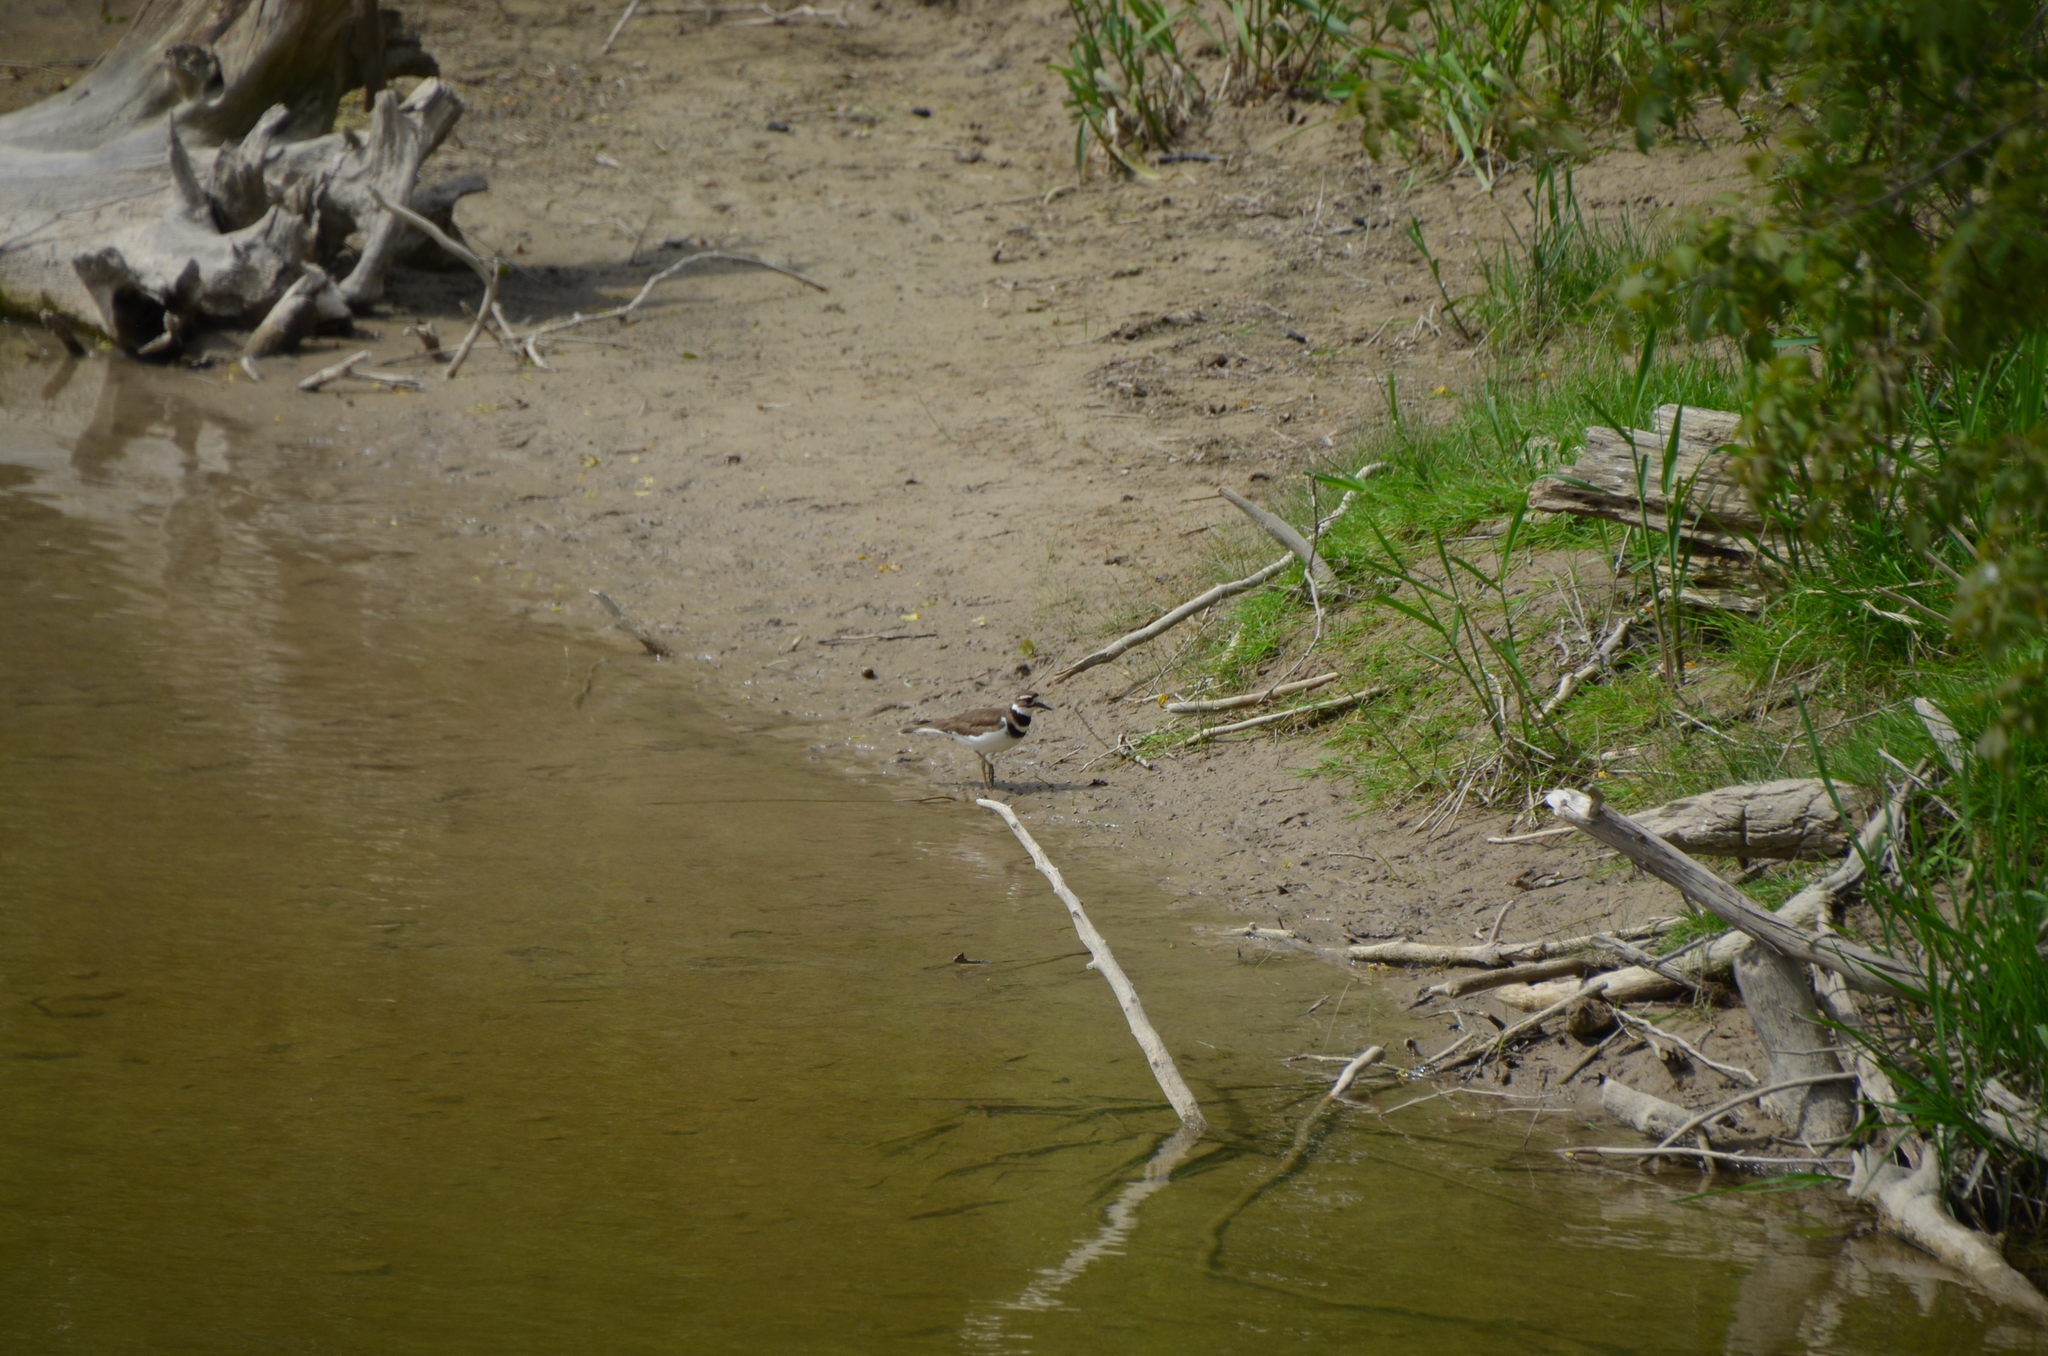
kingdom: Animalia
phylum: Chordata
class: Aves
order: Charadriiformes
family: Charadriidae
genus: Charadrius
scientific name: Charadrius vociferus
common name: Killdeer
